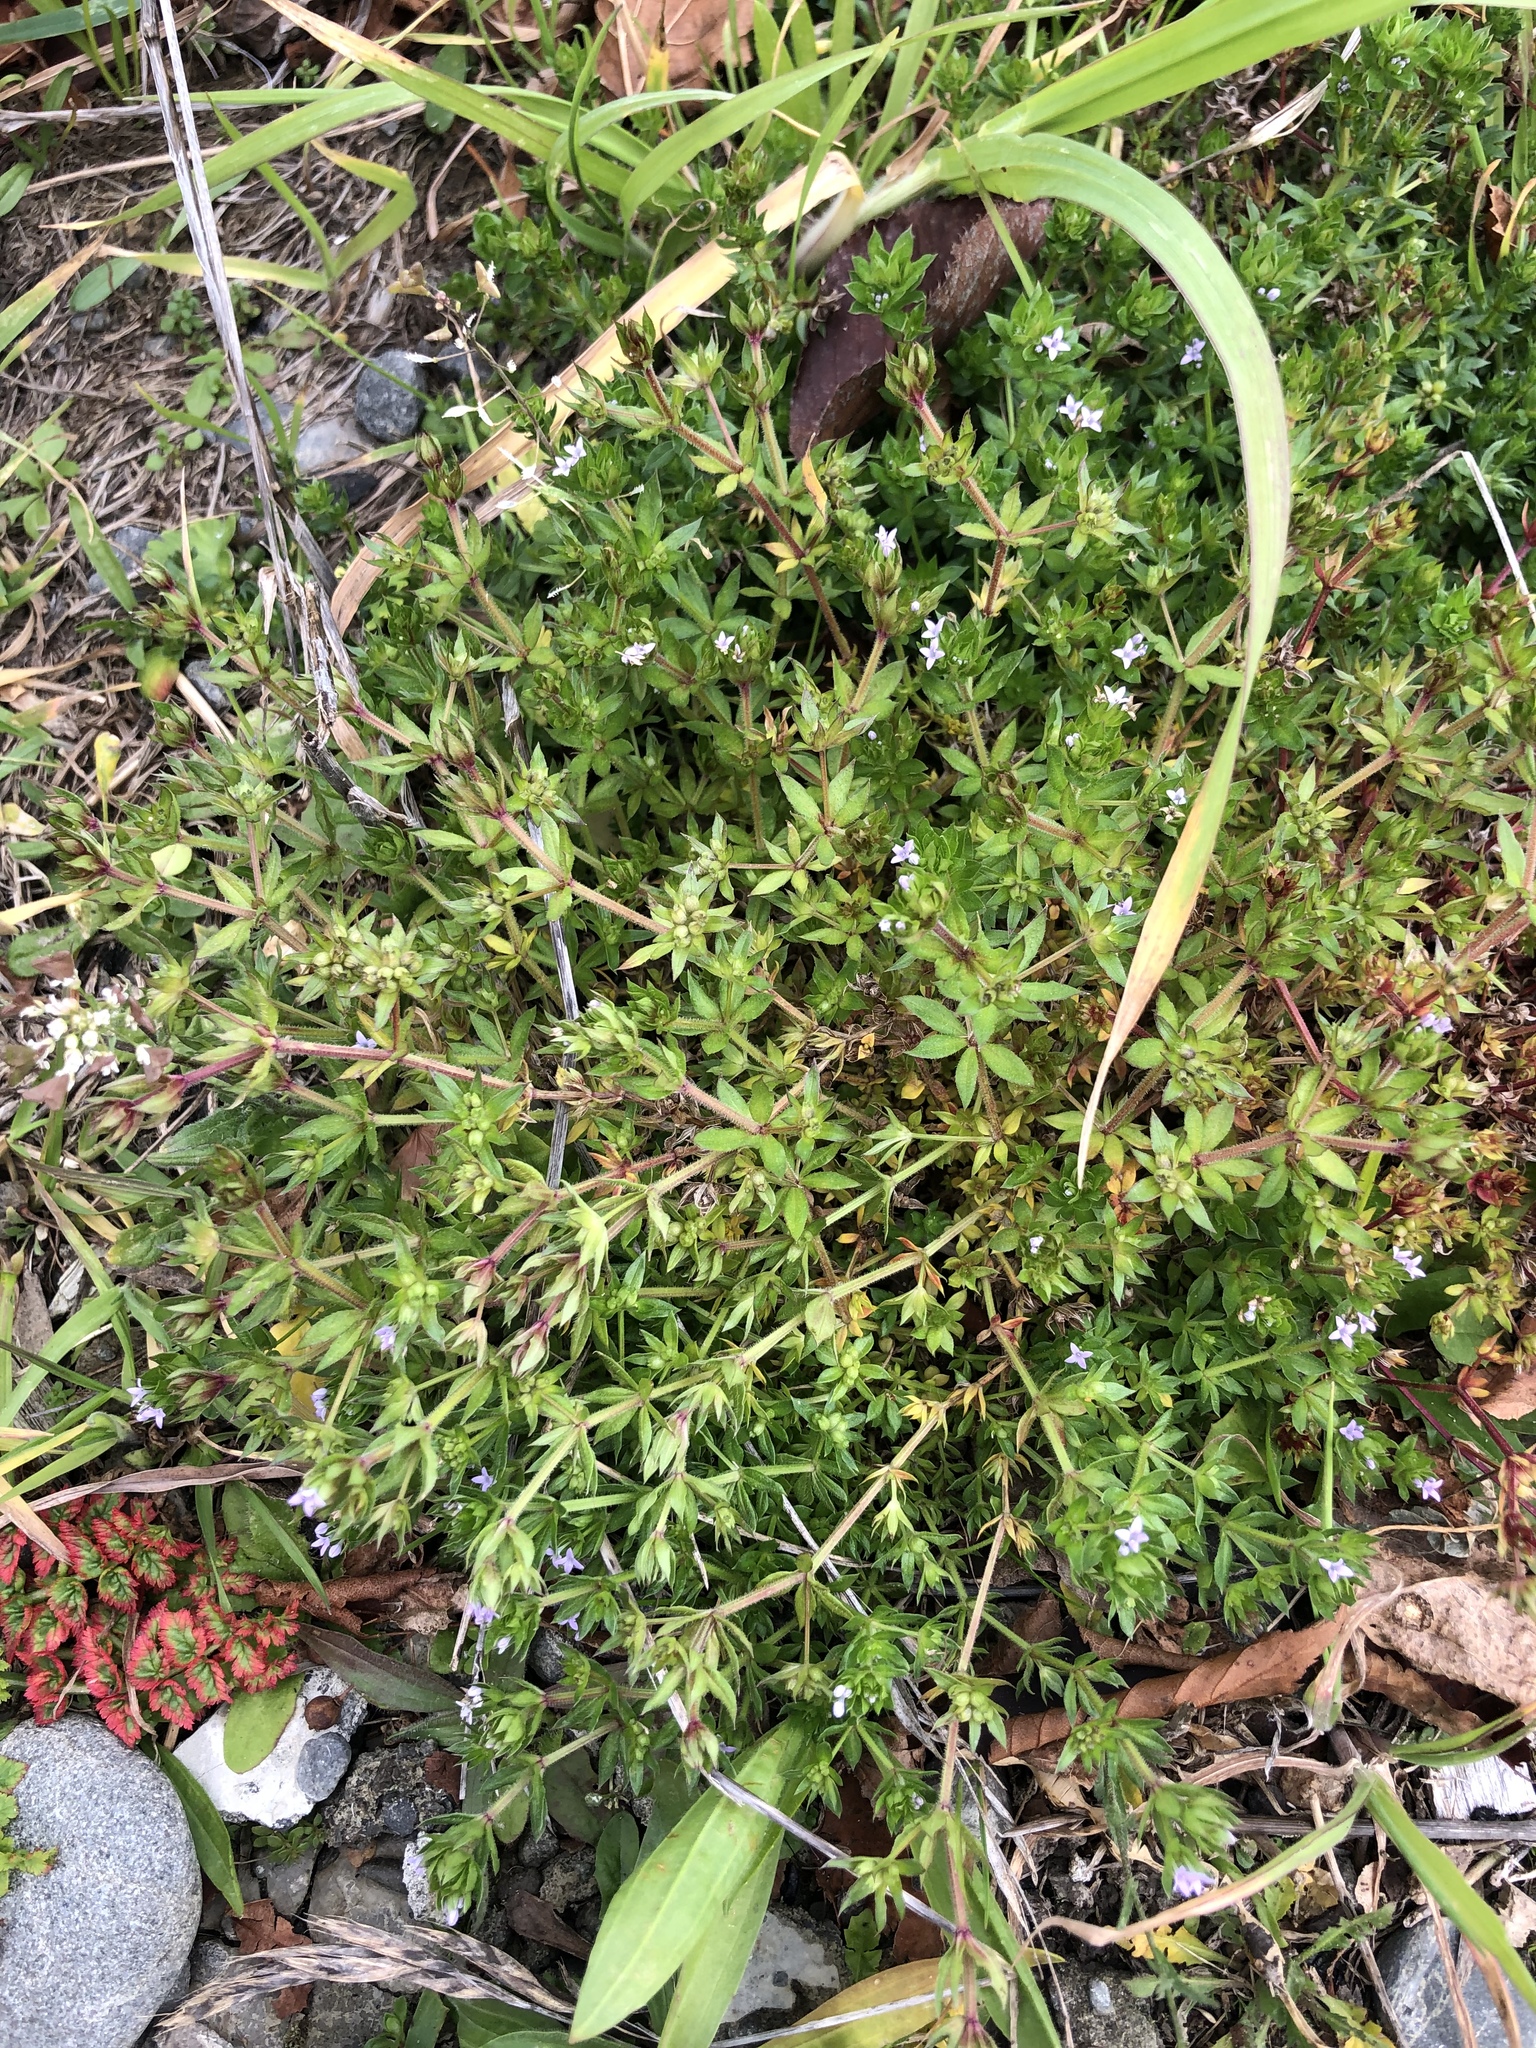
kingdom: Plantae
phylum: Tracheophyta
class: Magnoliopsida
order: Gentianales
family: Rubiaceae
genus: Sherardia
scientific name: Sherardia arvensis
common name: Field madder
